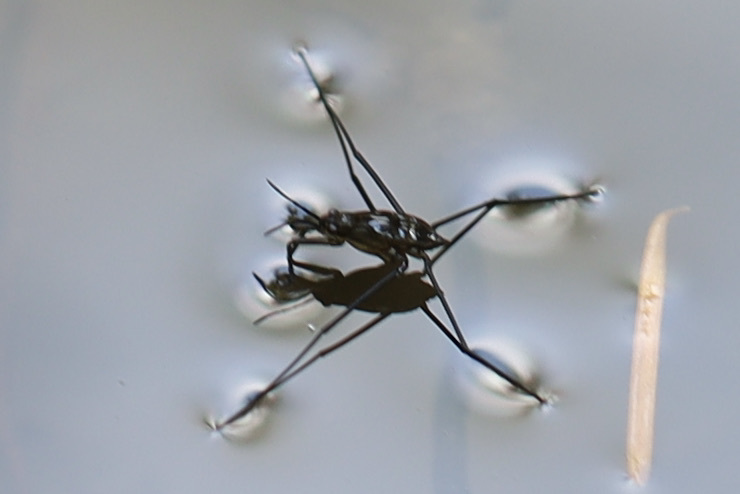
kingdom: Animalia
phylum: Arthropoda
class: Insecta
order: Hemiptera
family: Gerridae
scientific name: Gerridae
